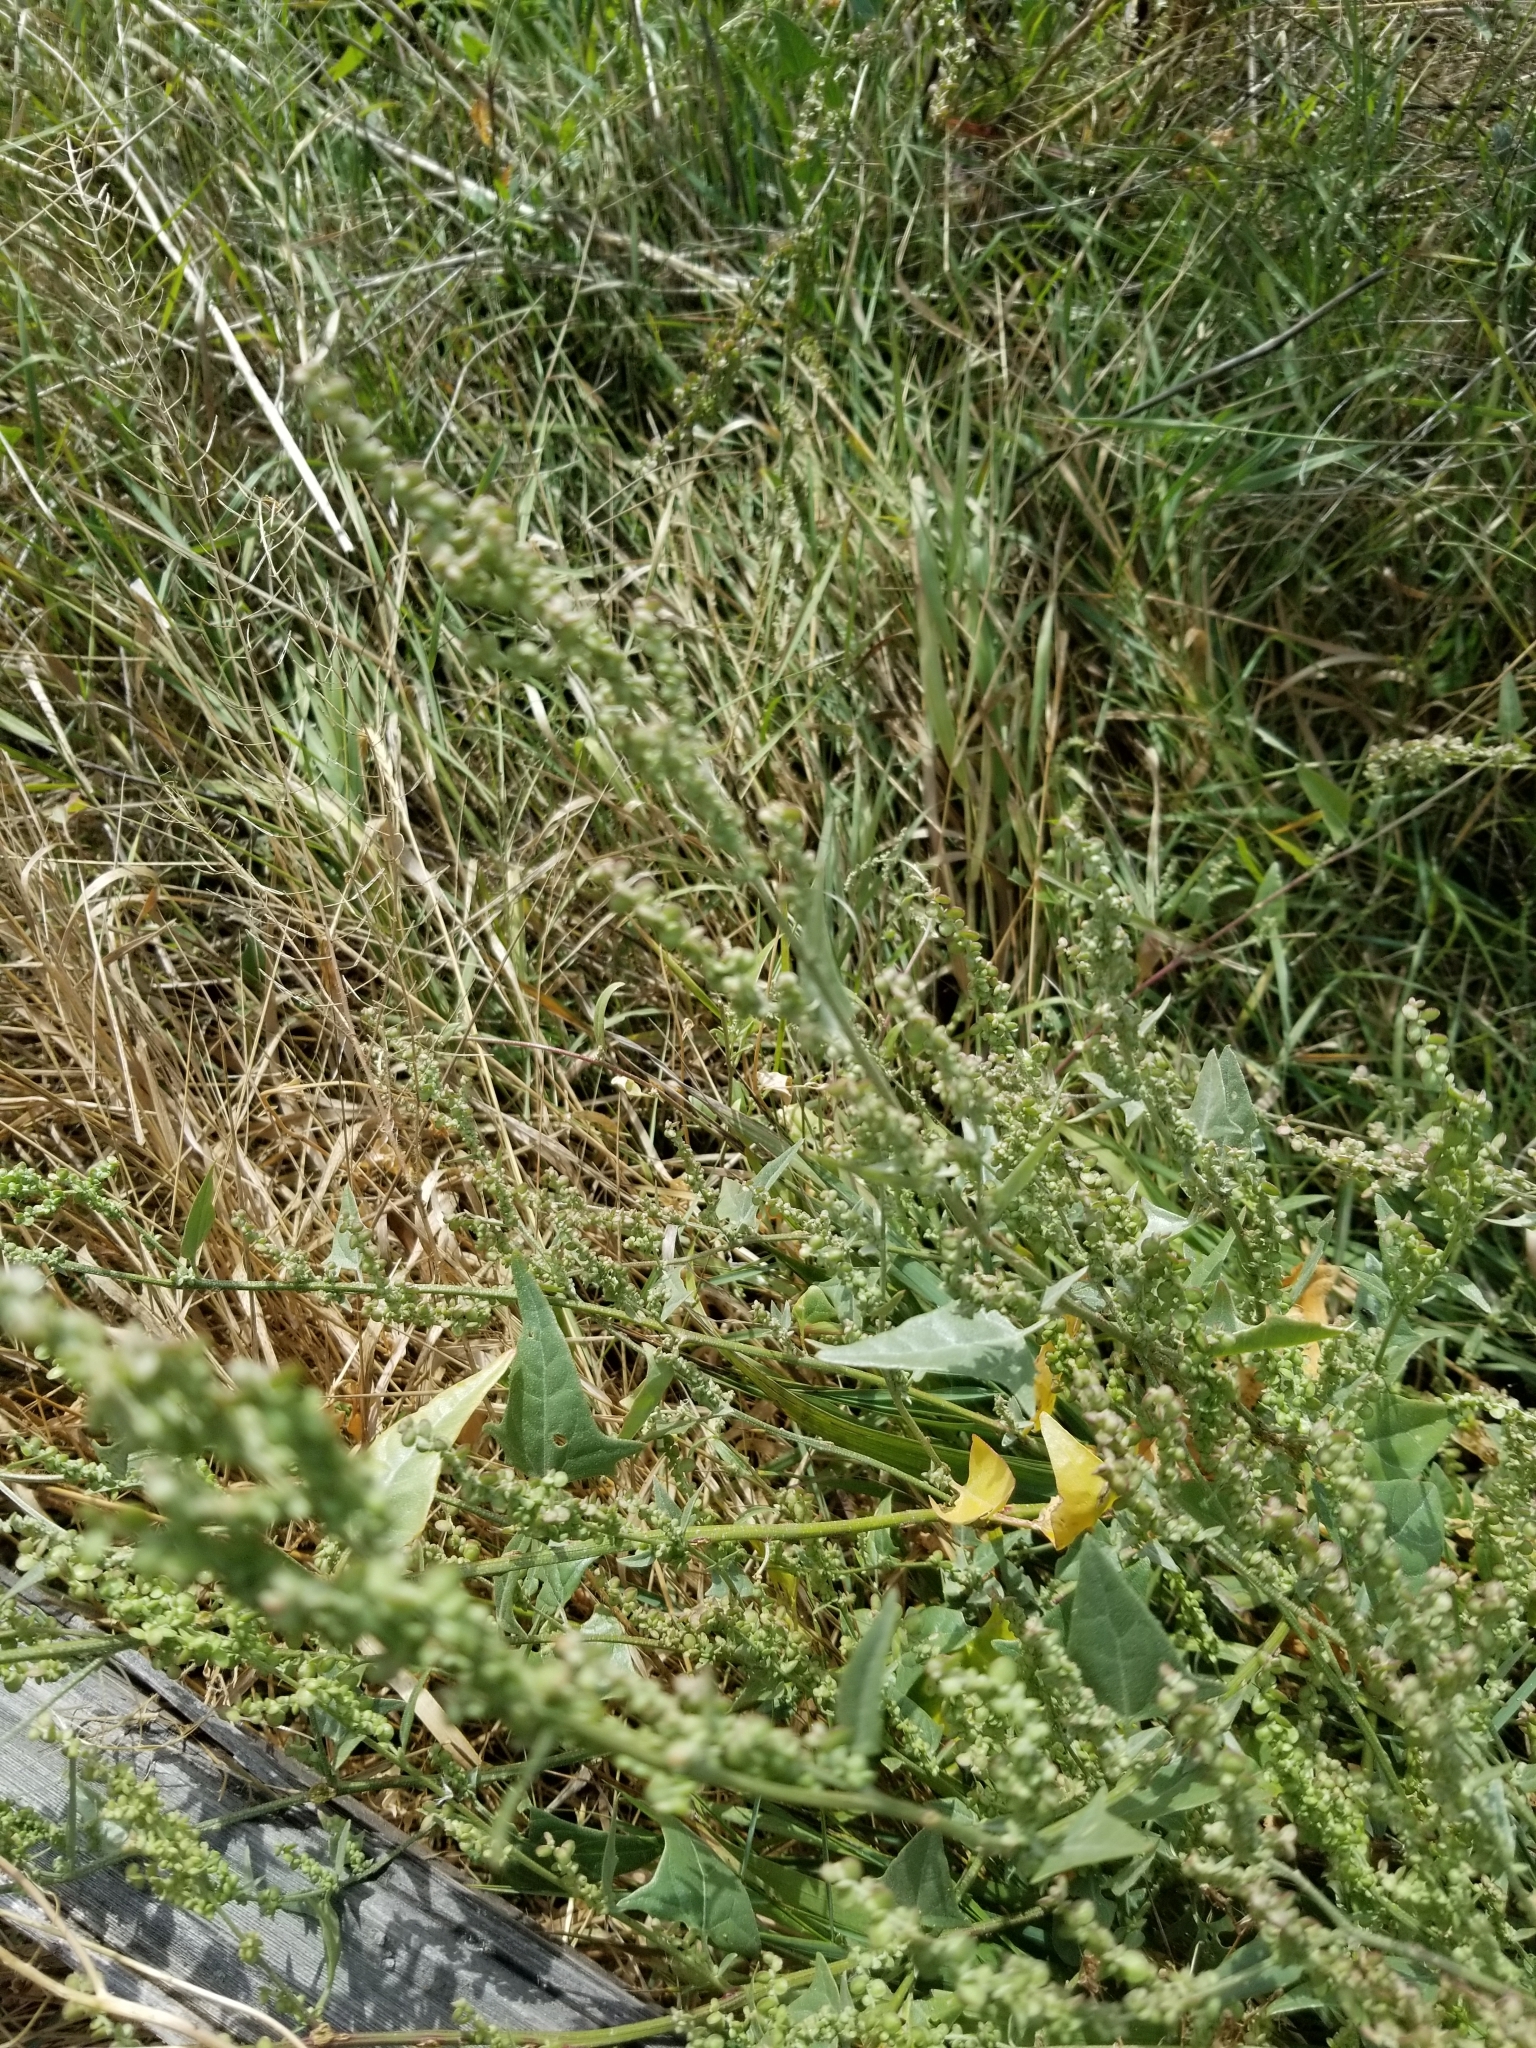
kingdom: Plantae
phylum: Tracheophyta
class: Magnoliopsida
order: Caryophyllales
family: Amaranthaceae
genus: Chenopodium
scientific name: Chenopodium album
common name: Fat-hen
